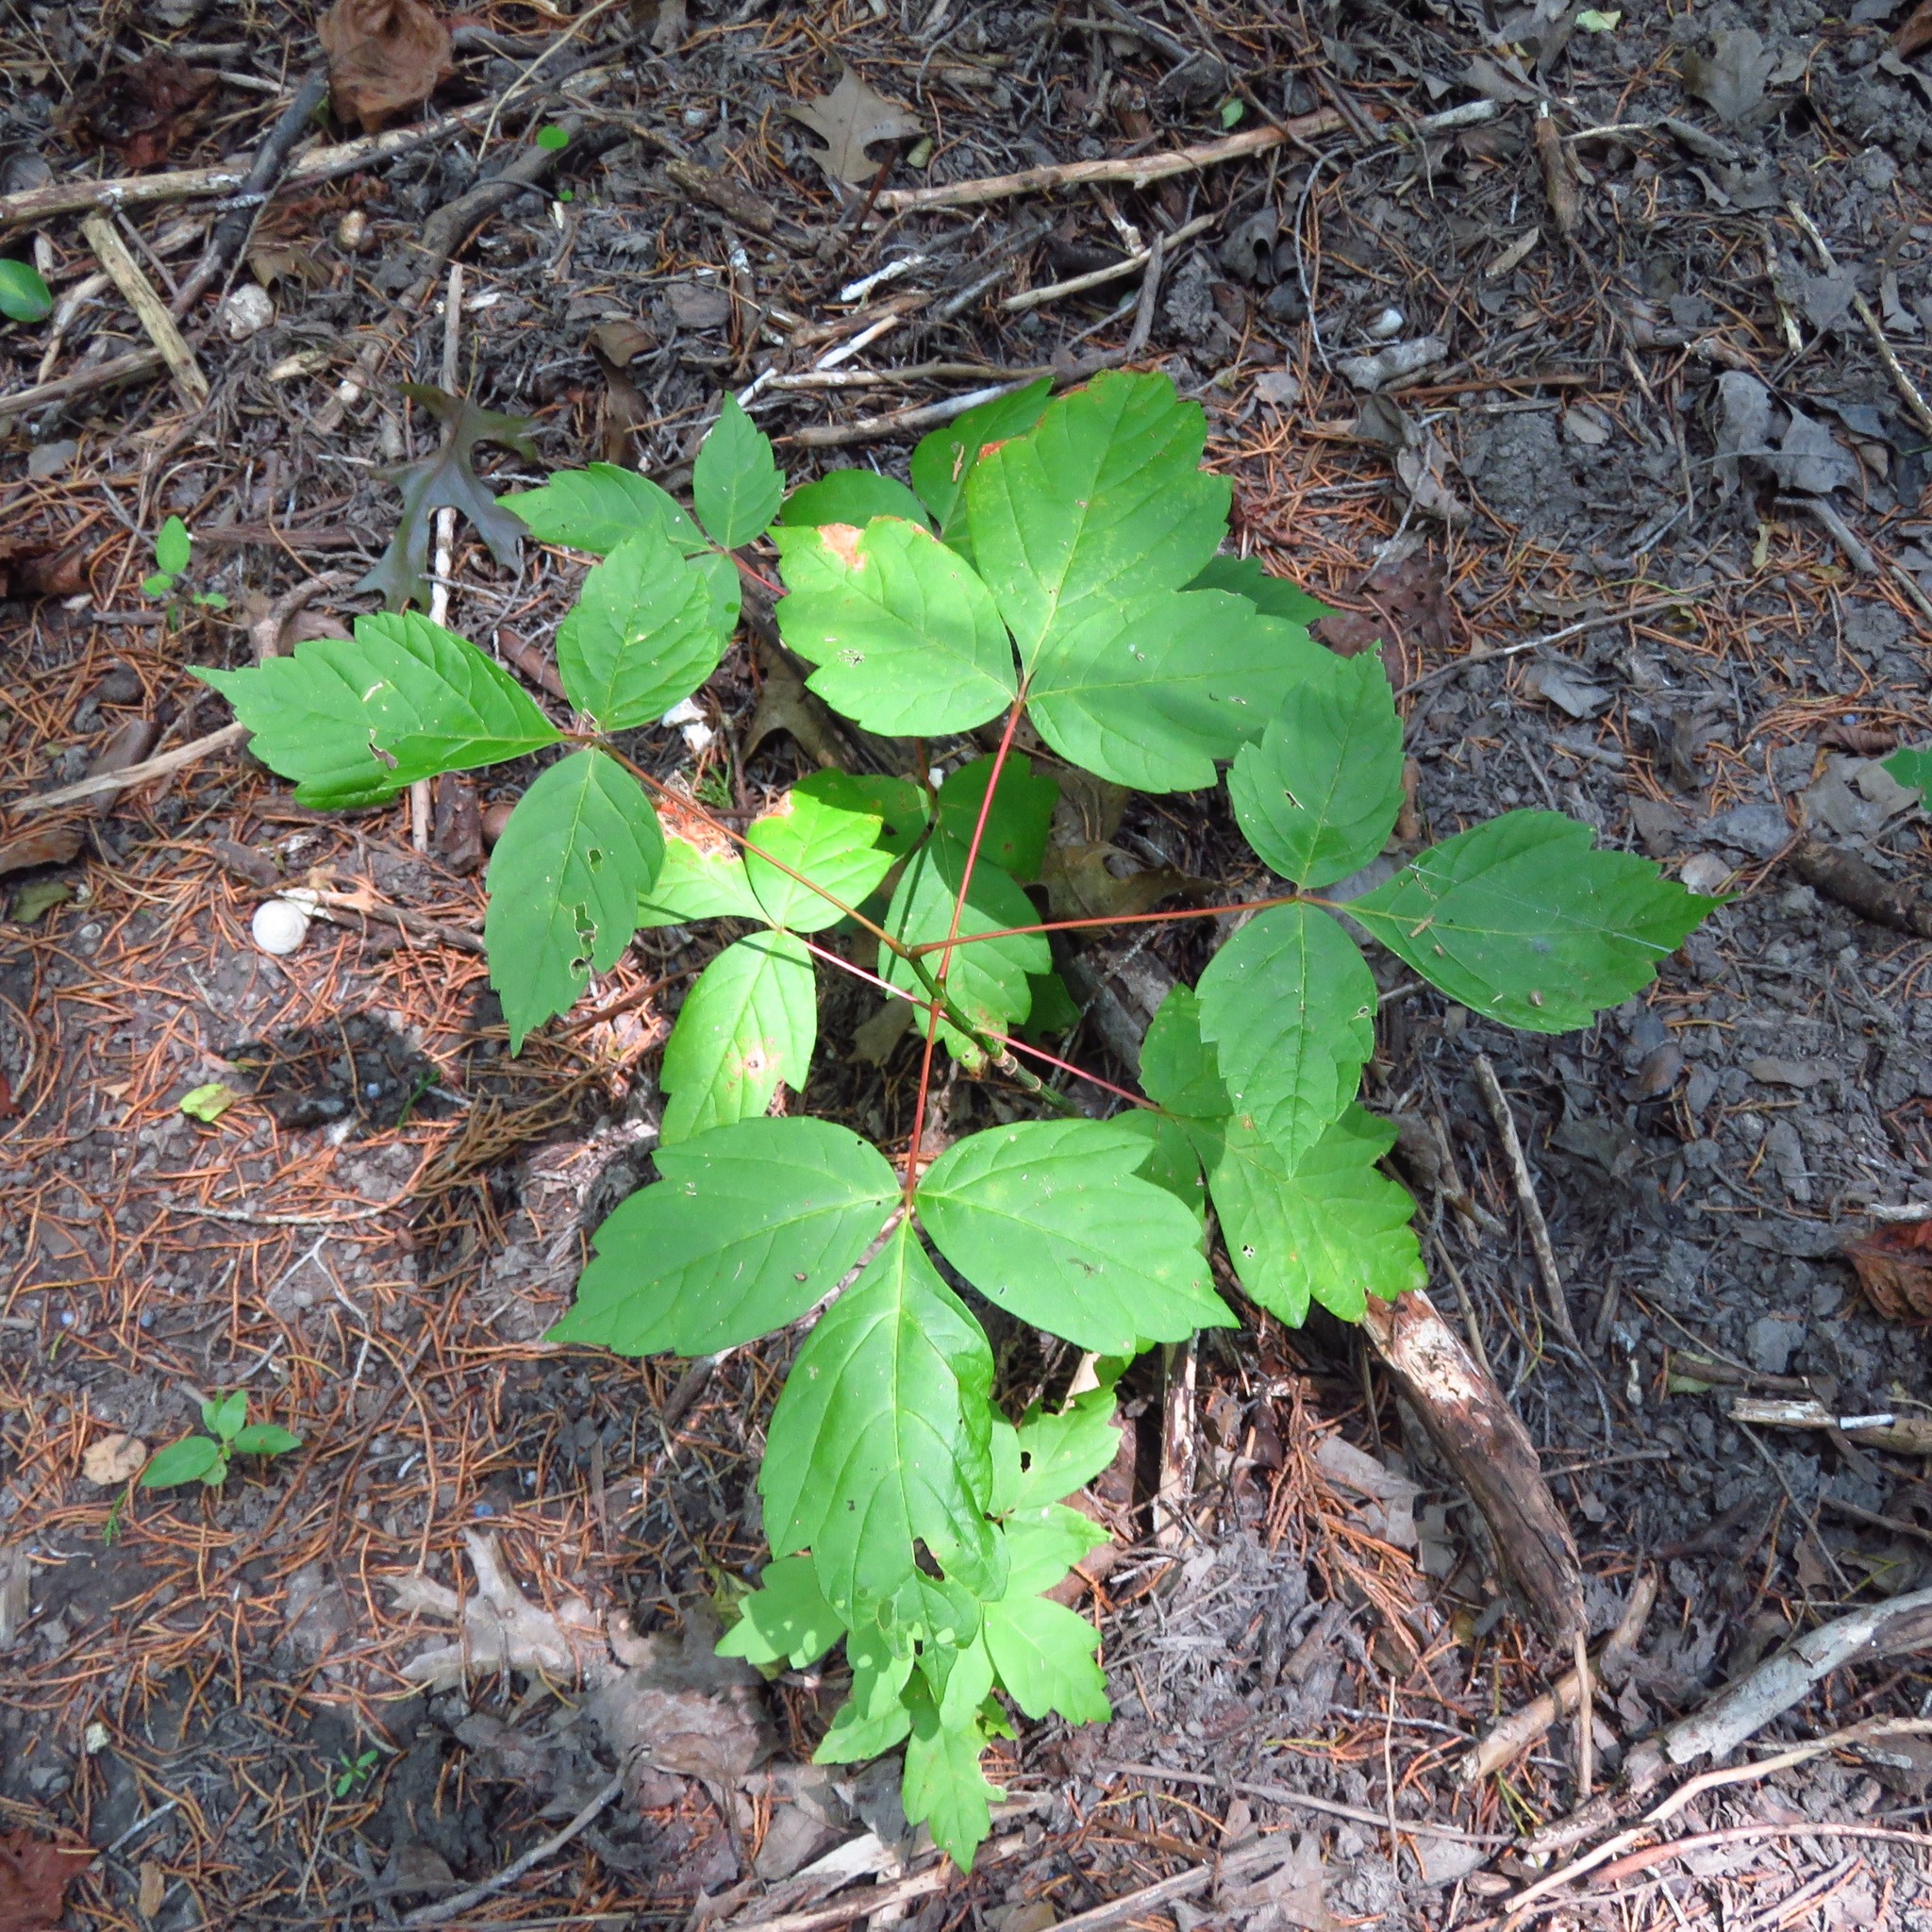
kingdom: Plantae
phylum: Tracheophyta
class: Magnoliopsida
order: Sapindales
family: Anacardiaceae
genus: Toxicodendron
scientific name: Toxicodendron radicans
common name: Poison ivy
